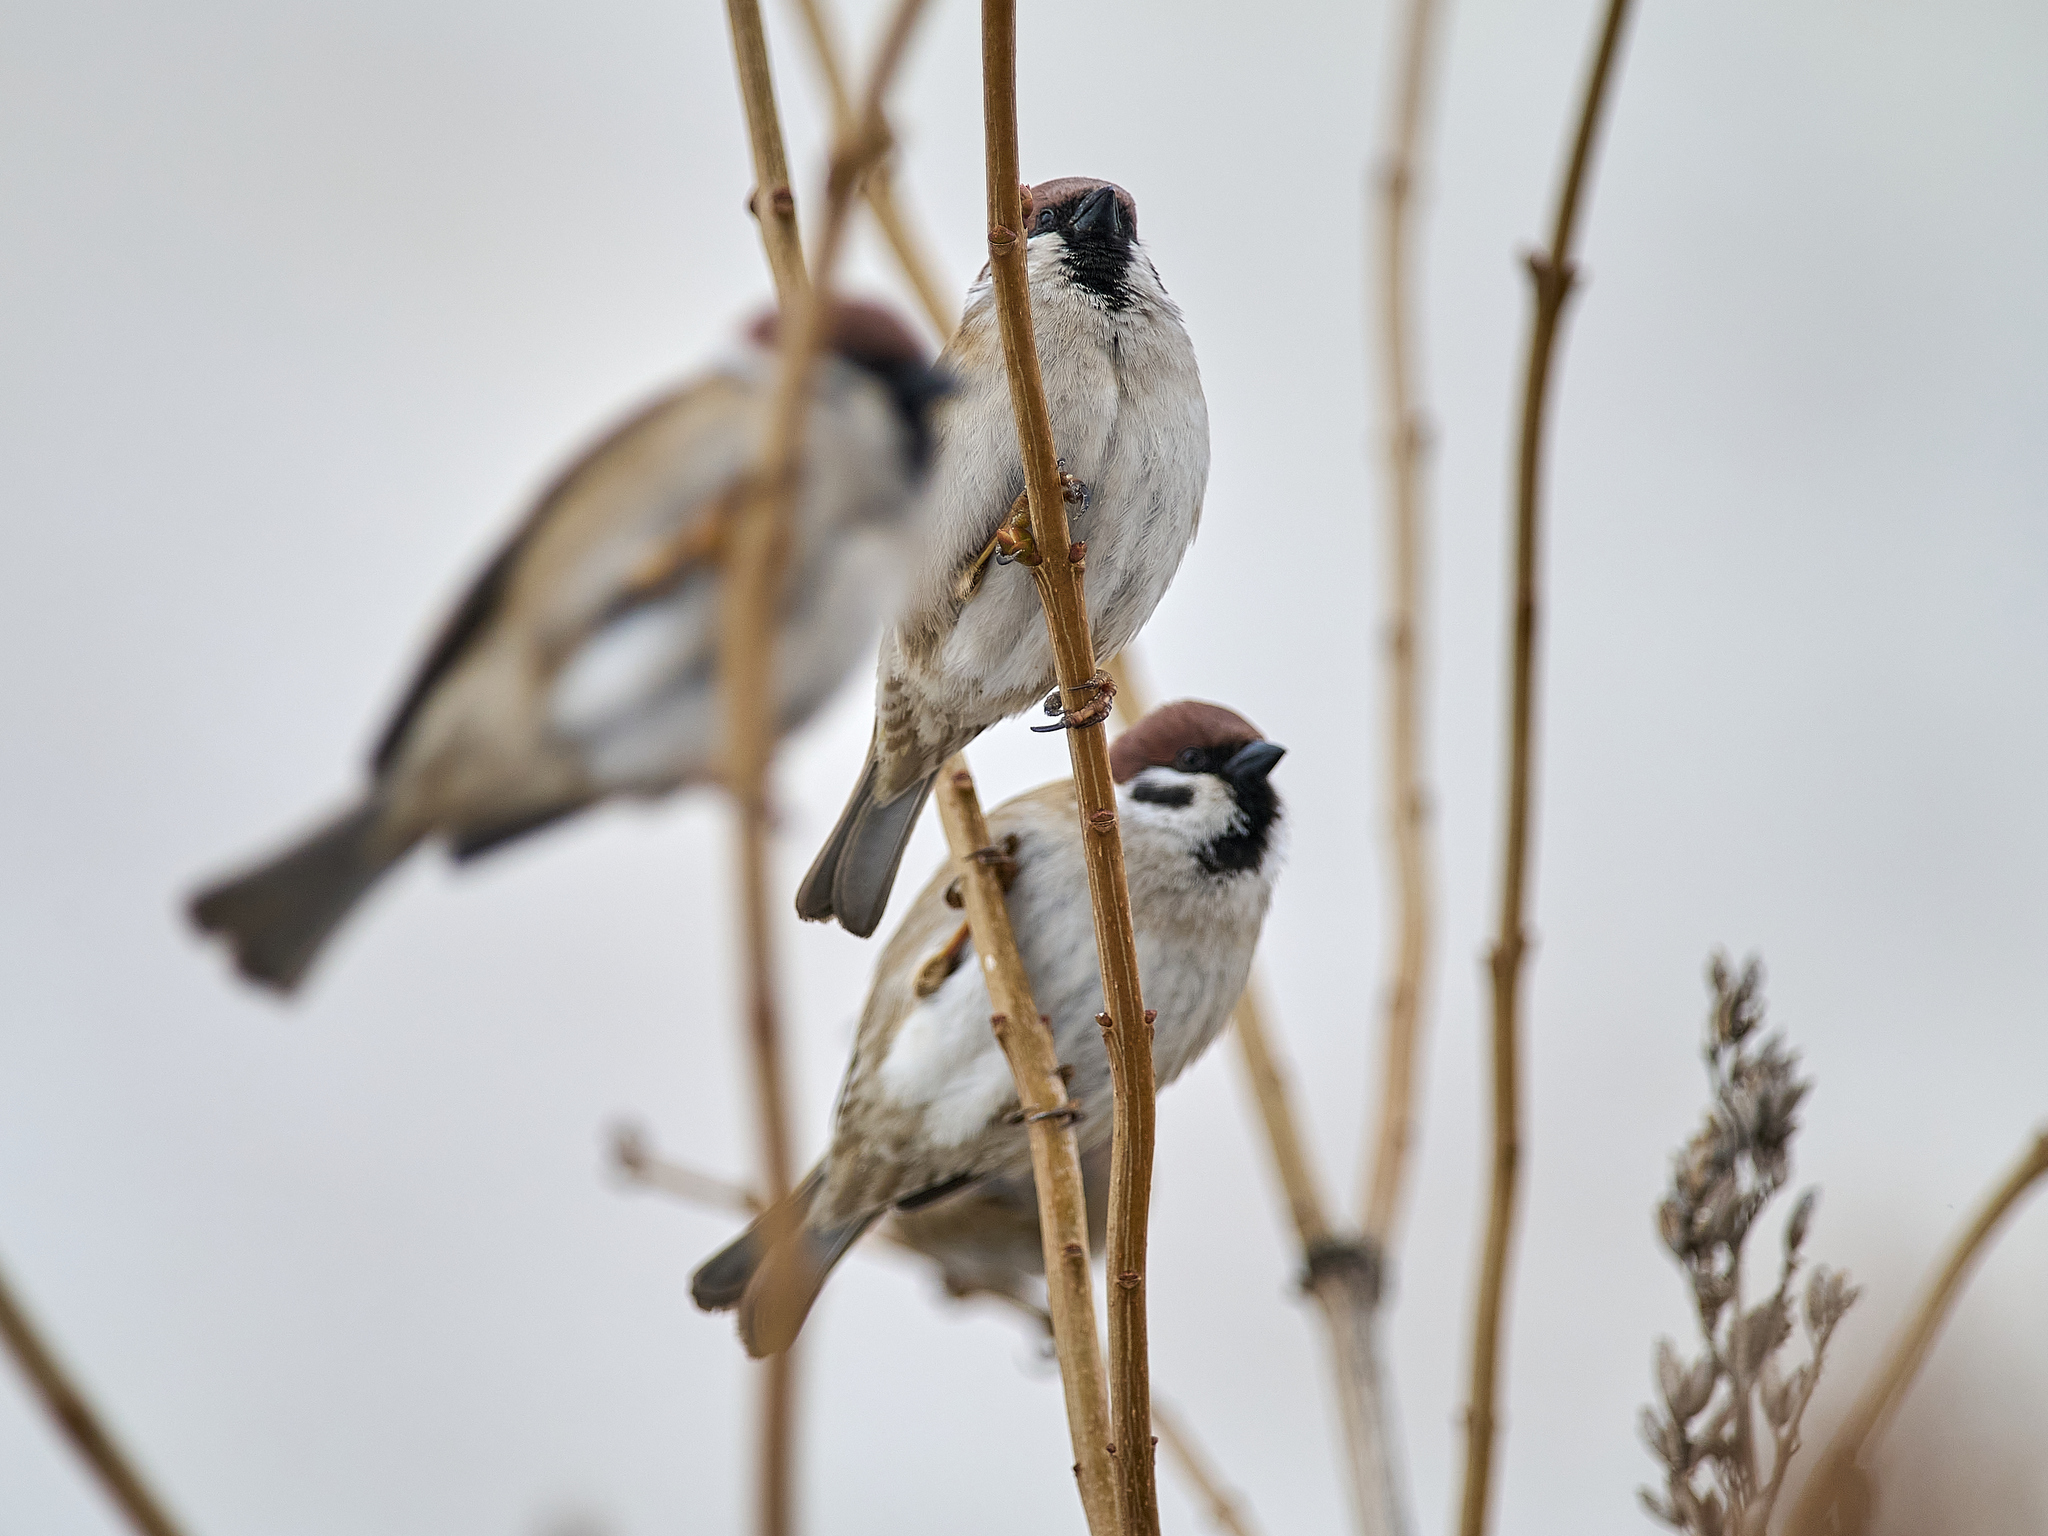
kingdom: Animalia
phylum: Chordata
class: Aves
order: Passeriformes
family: Passeridae
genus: Passer
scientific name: Passer montanus
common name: Eurasian tree sparrow
